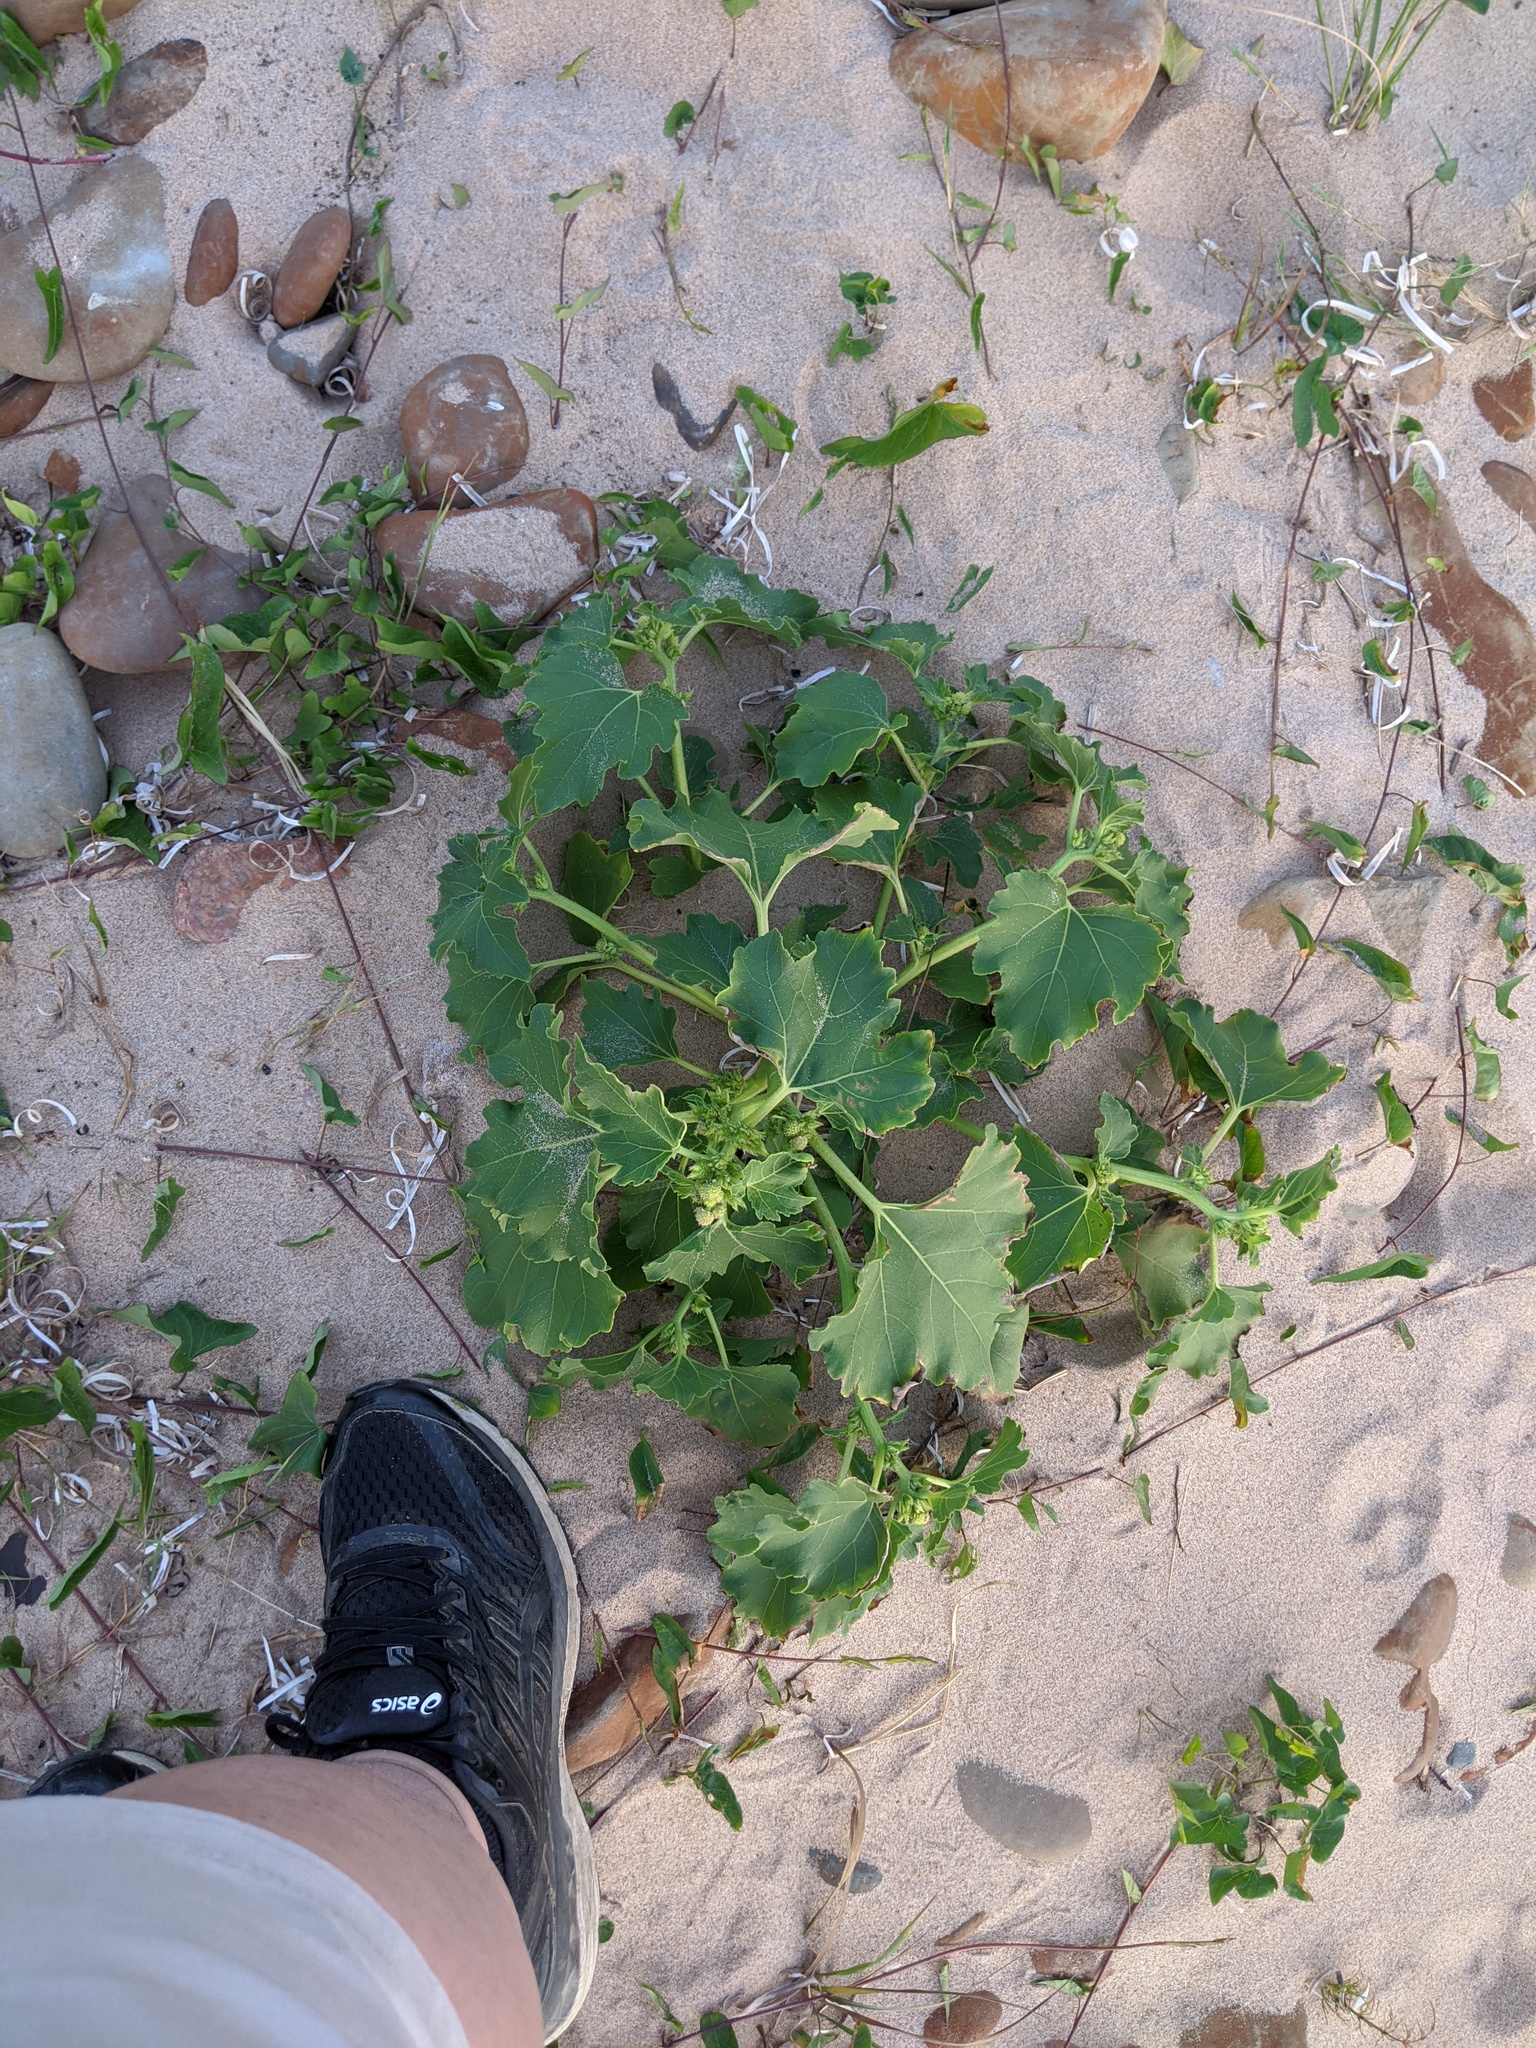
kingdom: Plantae
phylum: Tracheophyta
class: Magnoliopsida
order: Asterales
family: Asteraceae
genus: Xanthium
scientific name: Xanthium strumarium
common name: Rough cocklebur
